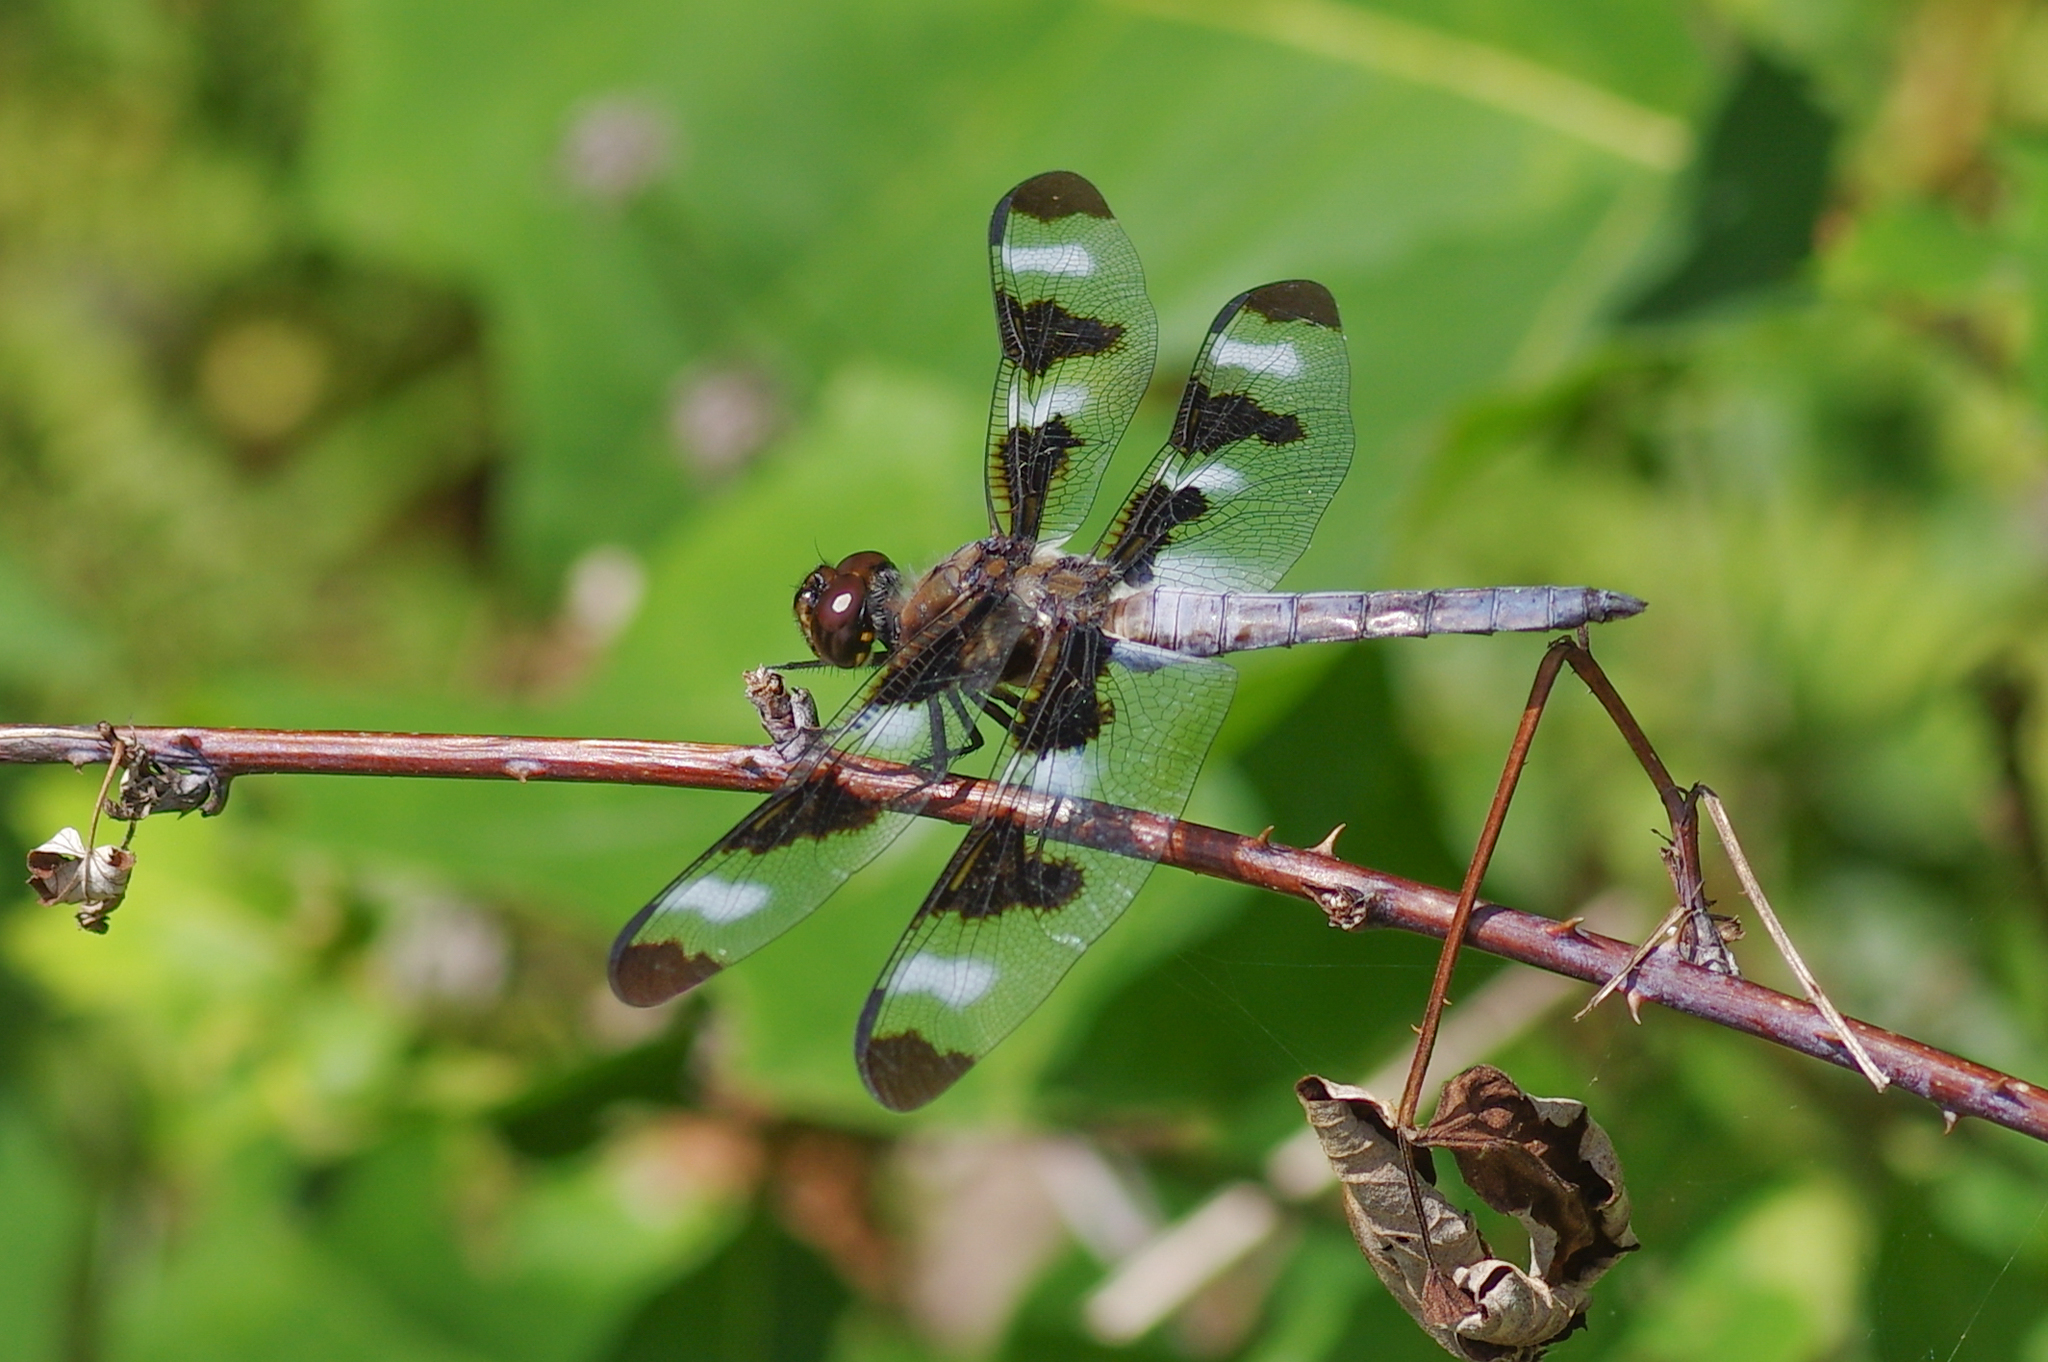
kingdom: Animalia
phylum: Arthropoda
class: Insecta
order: Odonata
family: Libellulidae
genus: Libellula
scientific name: Libellula pulchella
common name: Twelve-spotted skimmer
